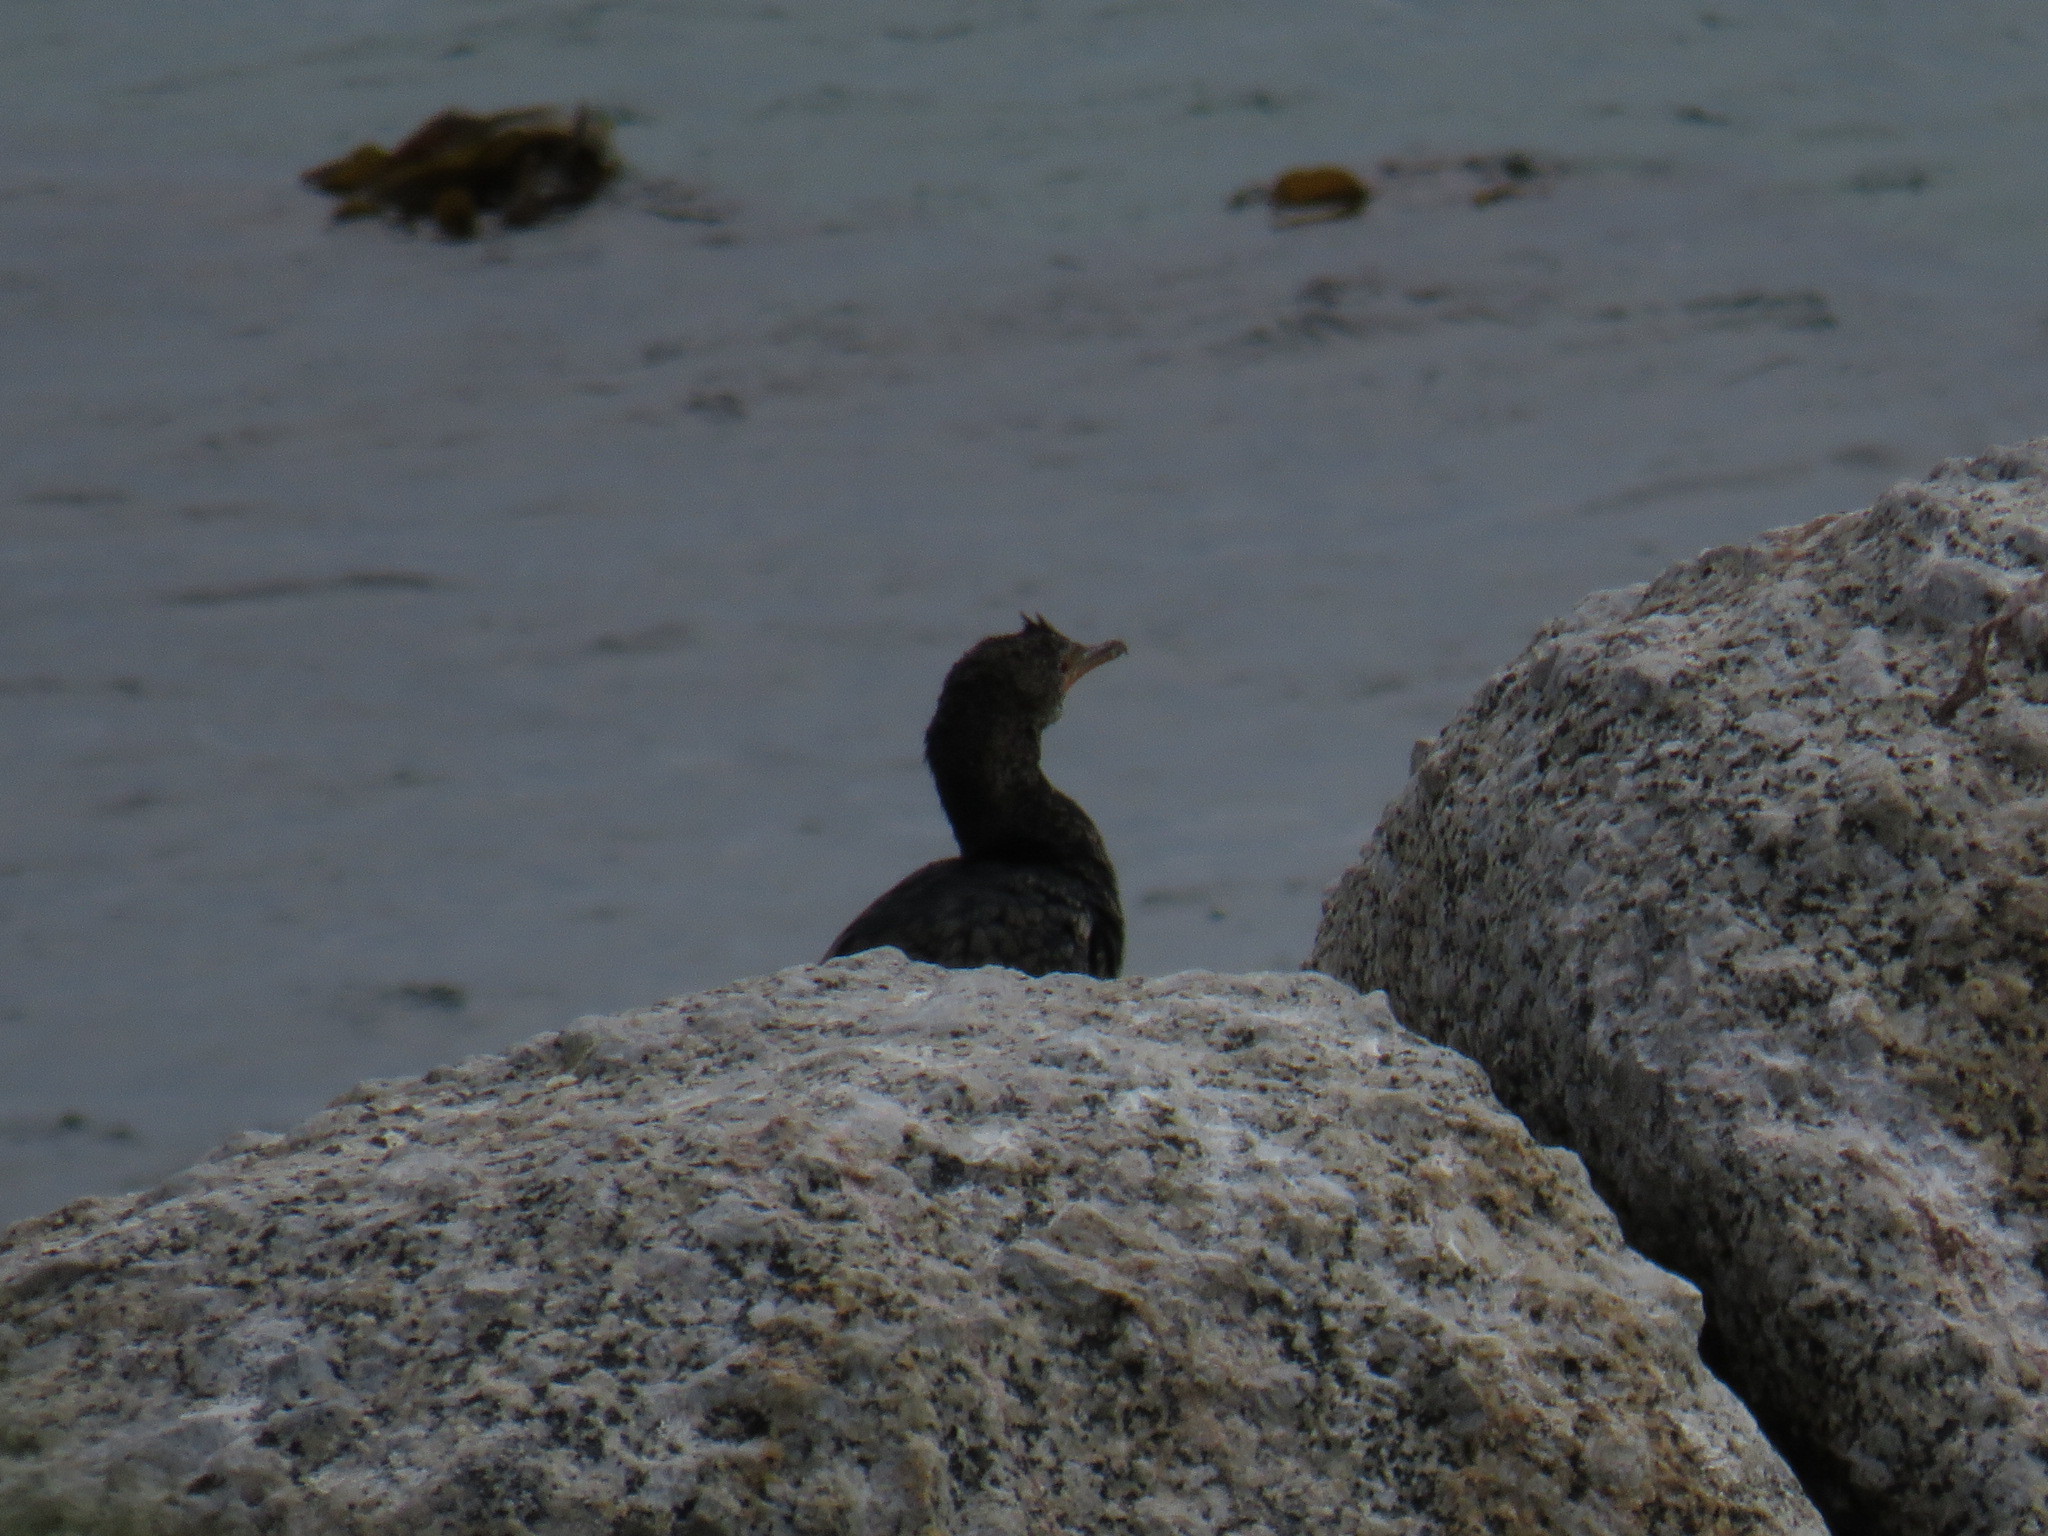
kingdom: Animalia
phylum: Chordata
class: Aves
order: Suliformes
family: Phalacrocoracidae
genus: Microcarbo
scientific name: Microcarbo coronatus
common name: Crowned cormorant
